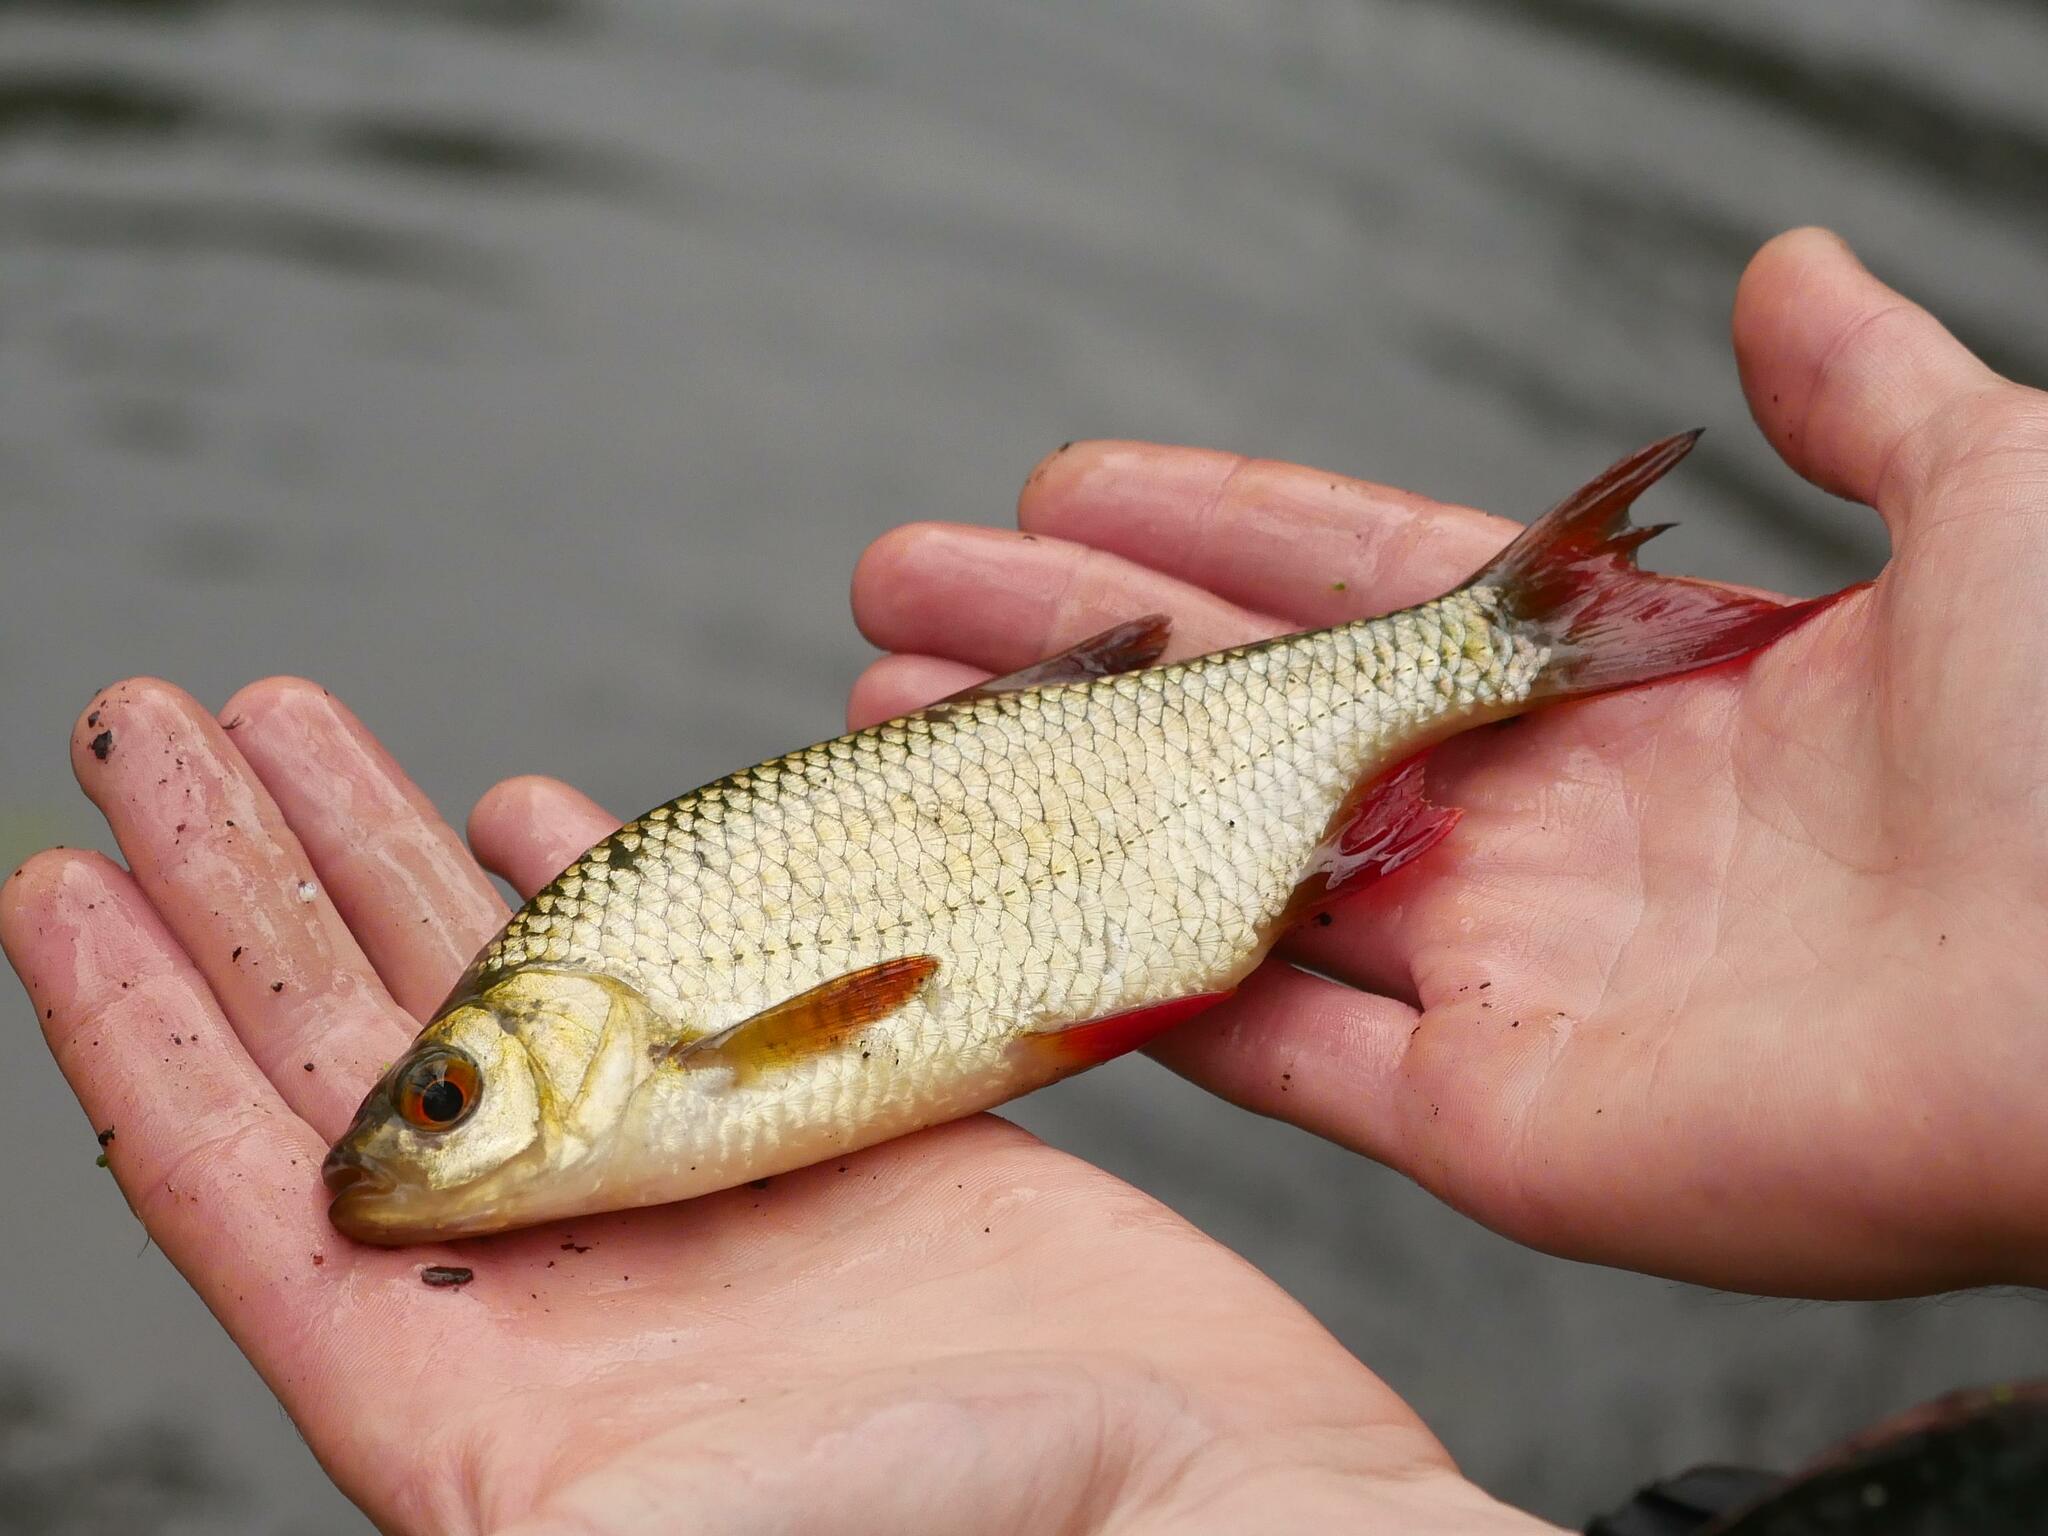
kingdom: Animalia
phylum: Chordata
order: Cypriniformes
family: Cyprinidae
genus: Scardinius
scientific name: Scardinius erythrophthalmus
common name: Rudd
